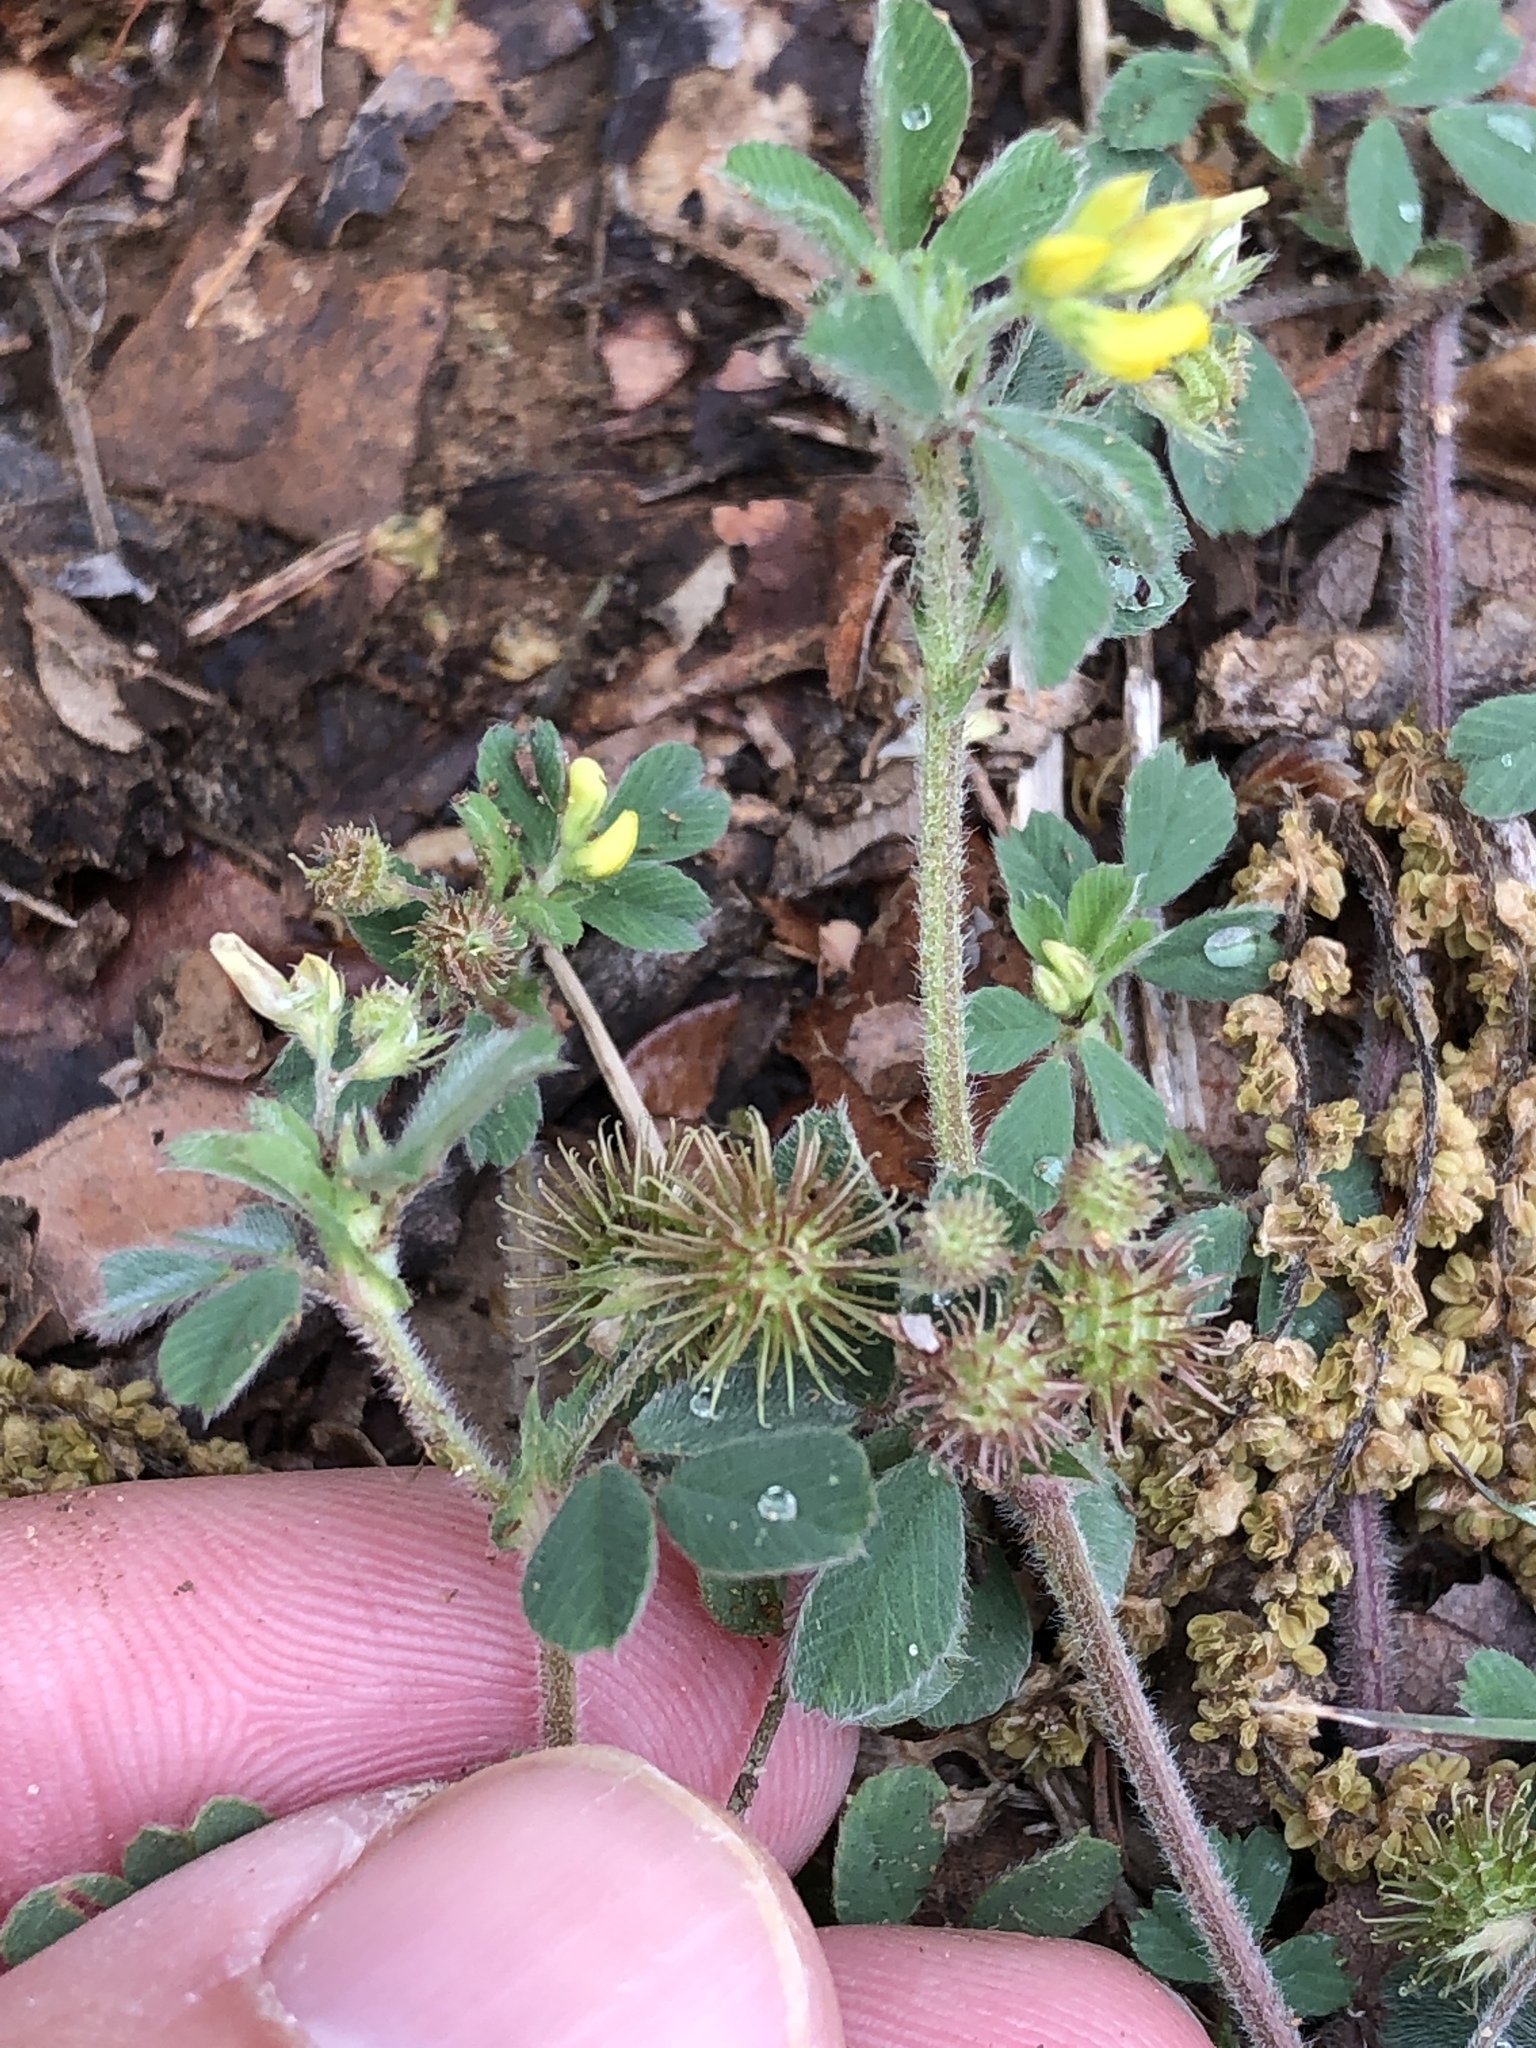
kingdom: Plantae
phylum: Tracheophyta
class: Magnoliopsida
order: Fabales
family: Fabaceae
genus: Medicago
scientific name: Medicago minima
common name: Little bur-clover
